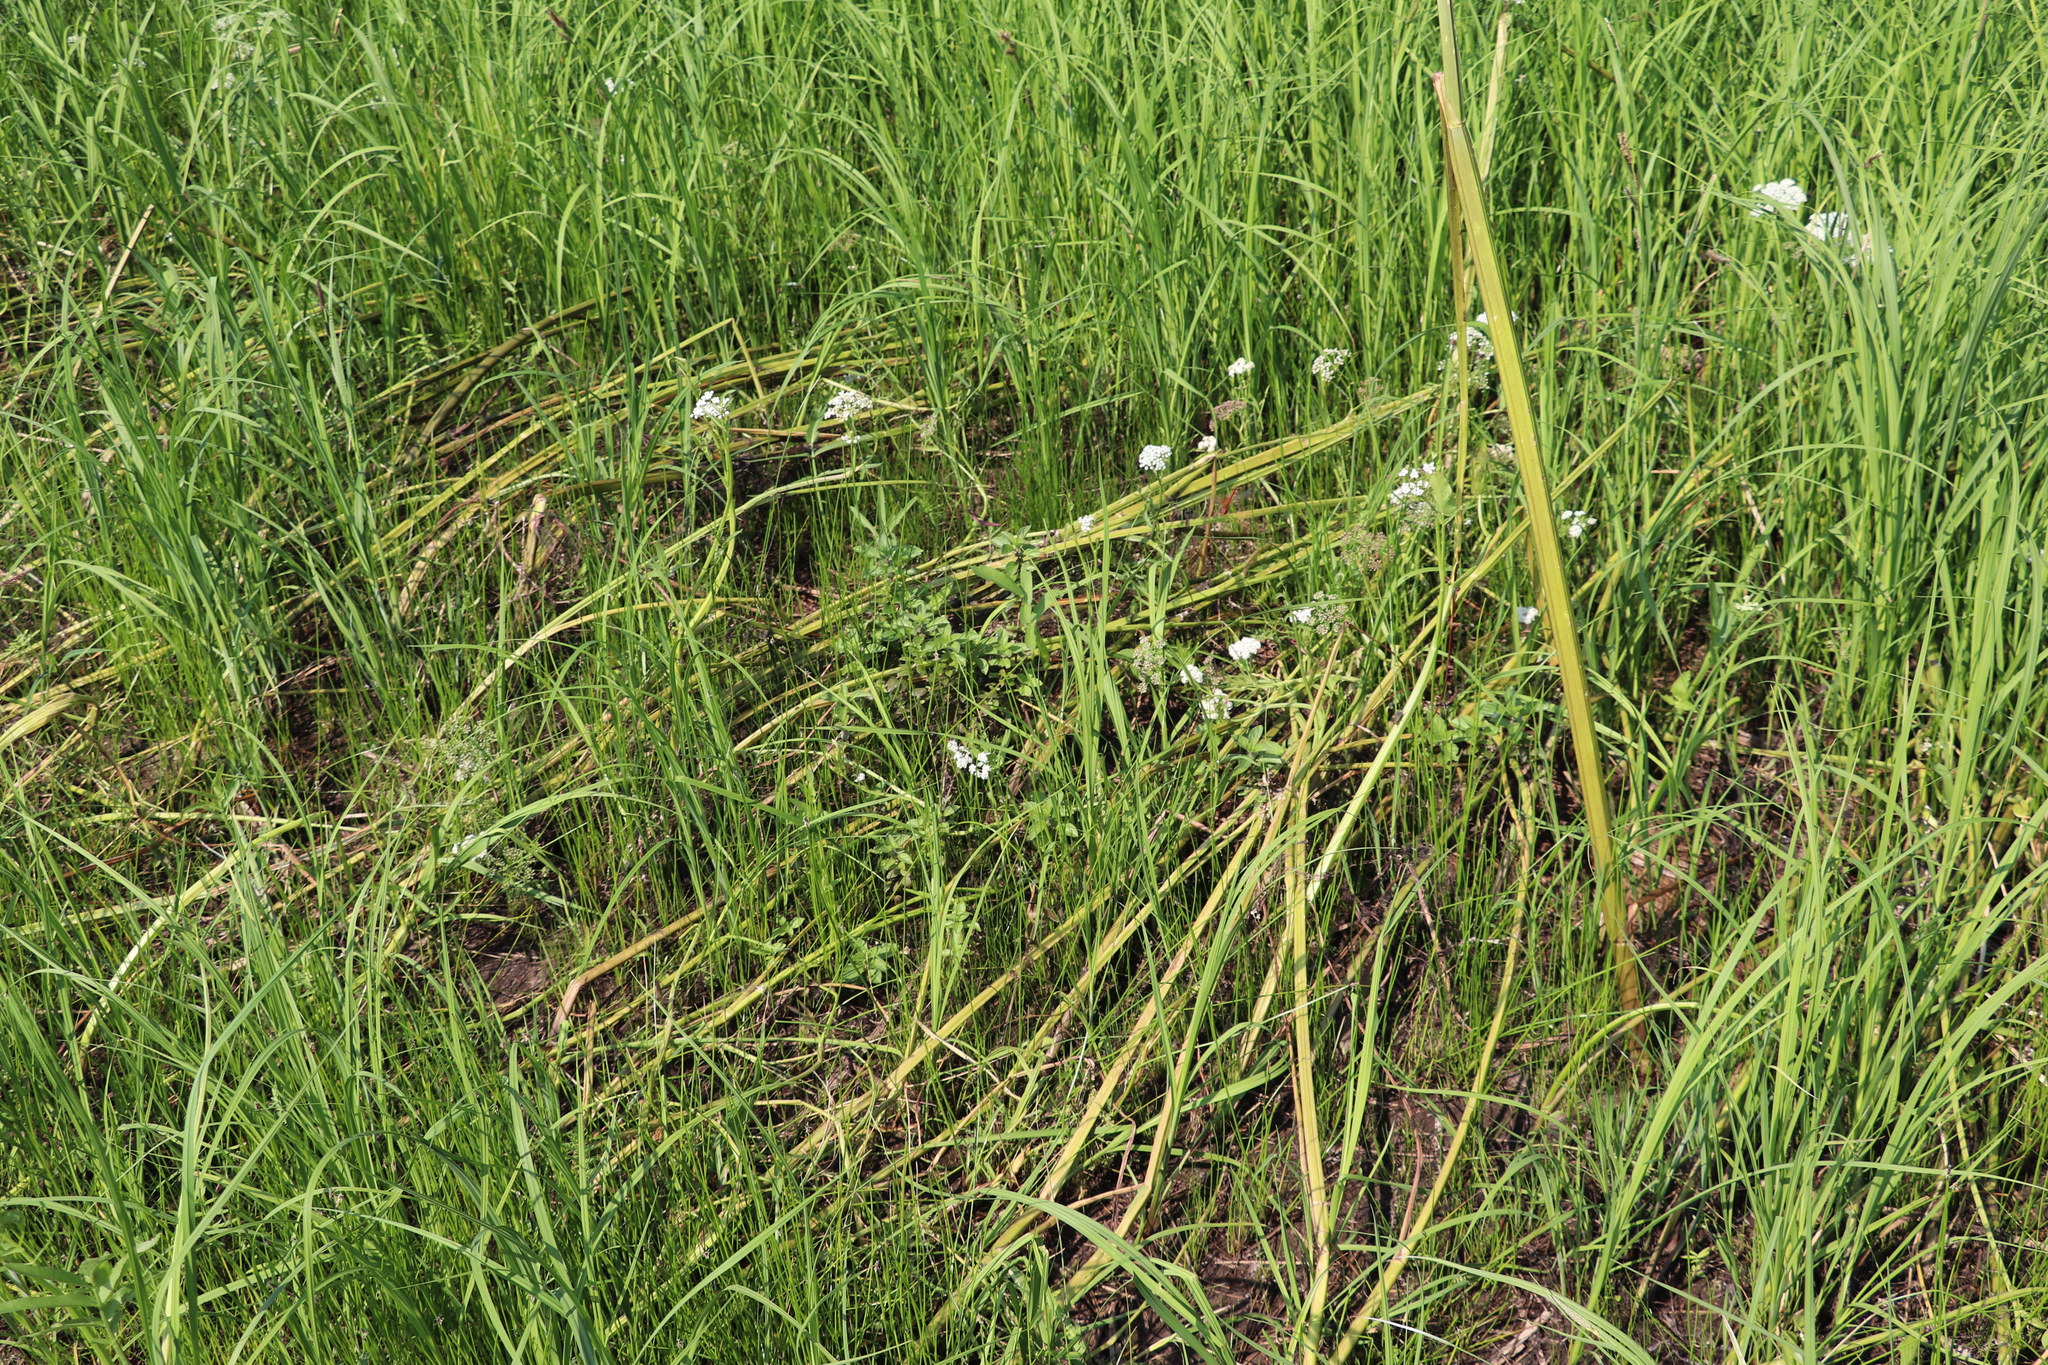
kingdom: Plantae
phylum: Tracheophyta
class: Magnoliopsida
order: Apiales
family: Apiaceae
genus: Cicuta
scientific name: Cicuta virosa
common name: Cowbane
